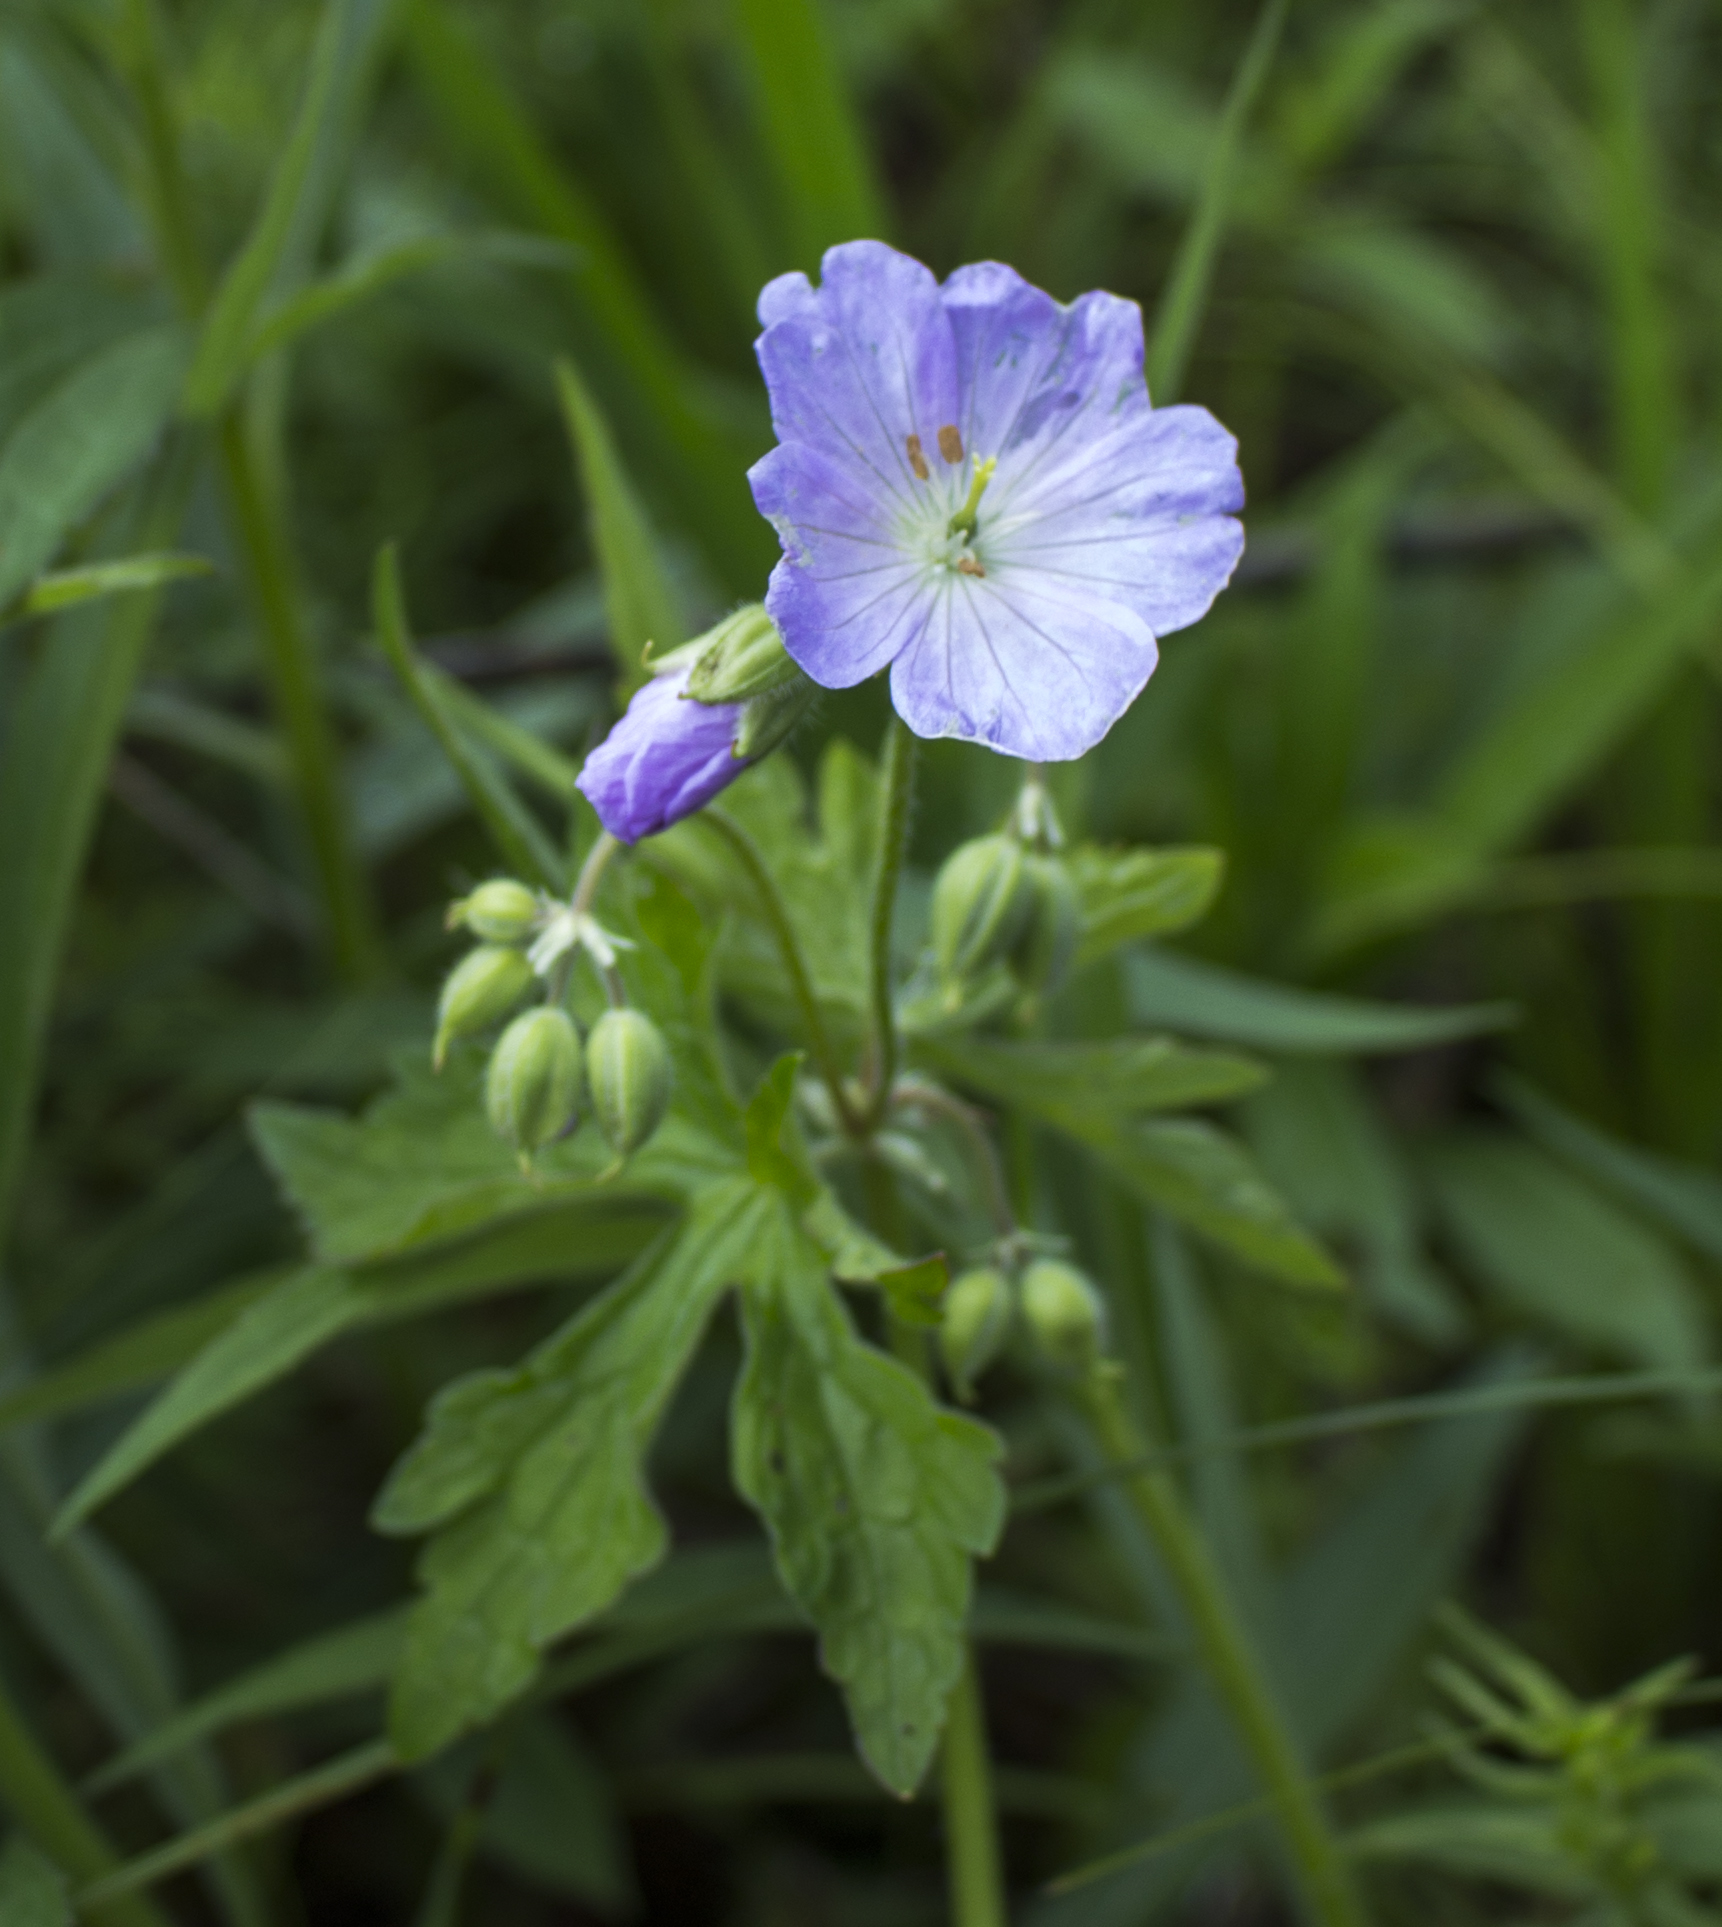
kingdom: Plantae
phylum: Tracheophyta
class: Magnoliopsida
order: Geraniales
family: Geraniaceae
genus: Geranium
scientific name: Geranium maculatum
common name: Spotted geranium
